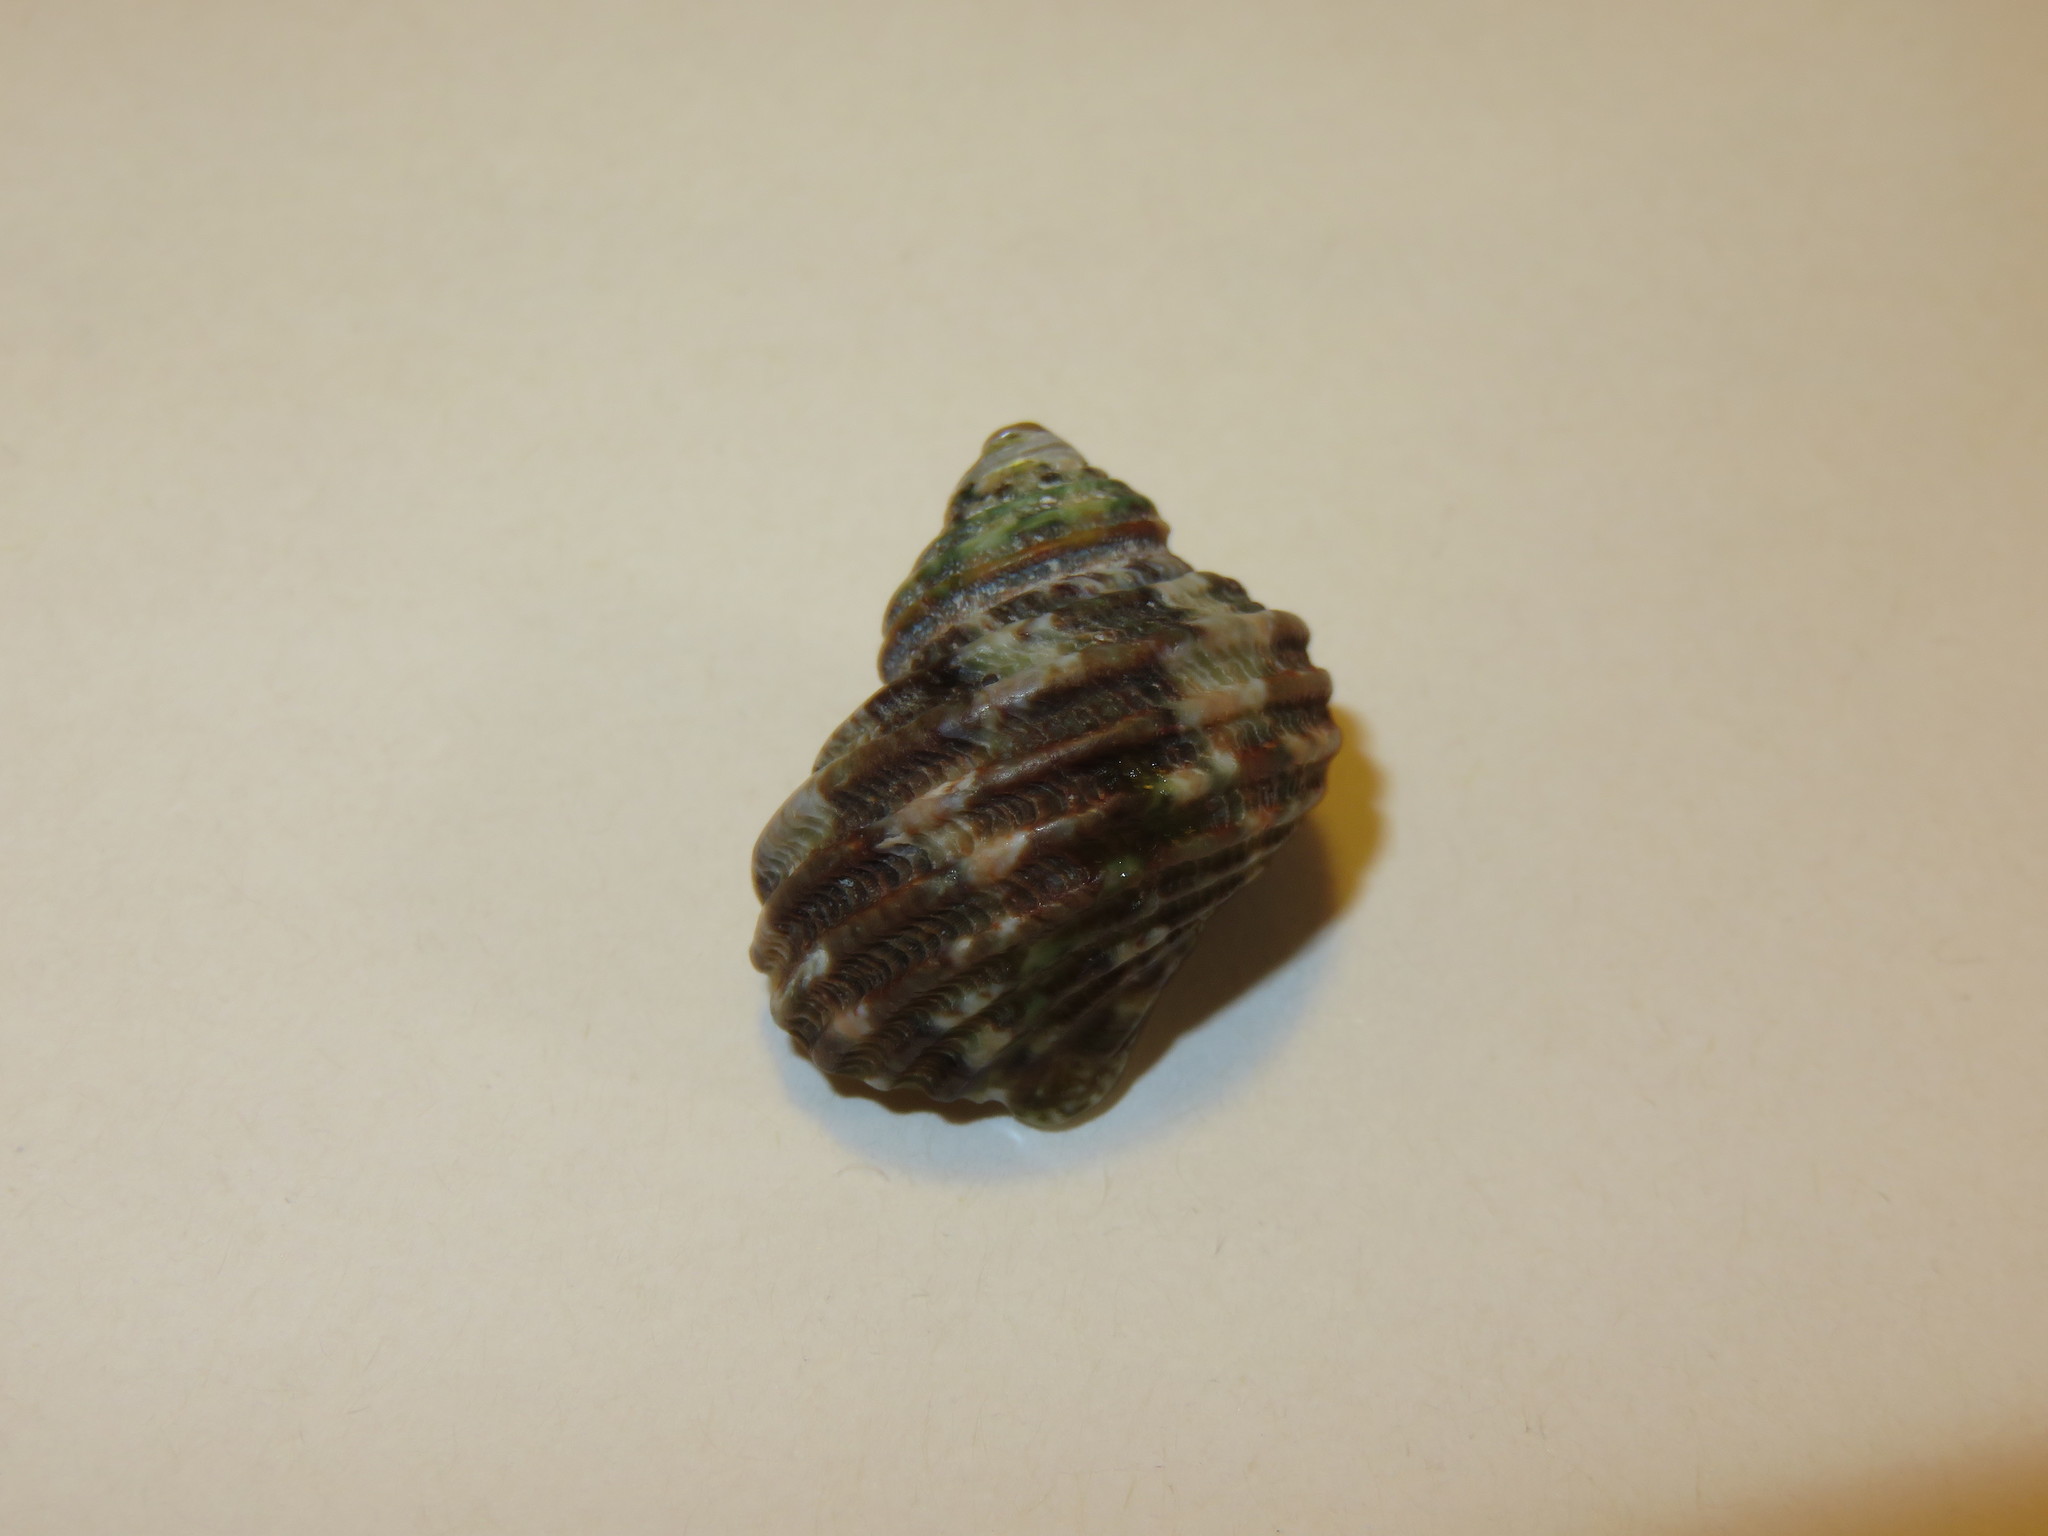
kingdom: Animalia
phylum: Mollusca
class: Gastropoda
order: Trochida
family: Turbinidae
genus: Turbo
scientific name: Turbo sazae
